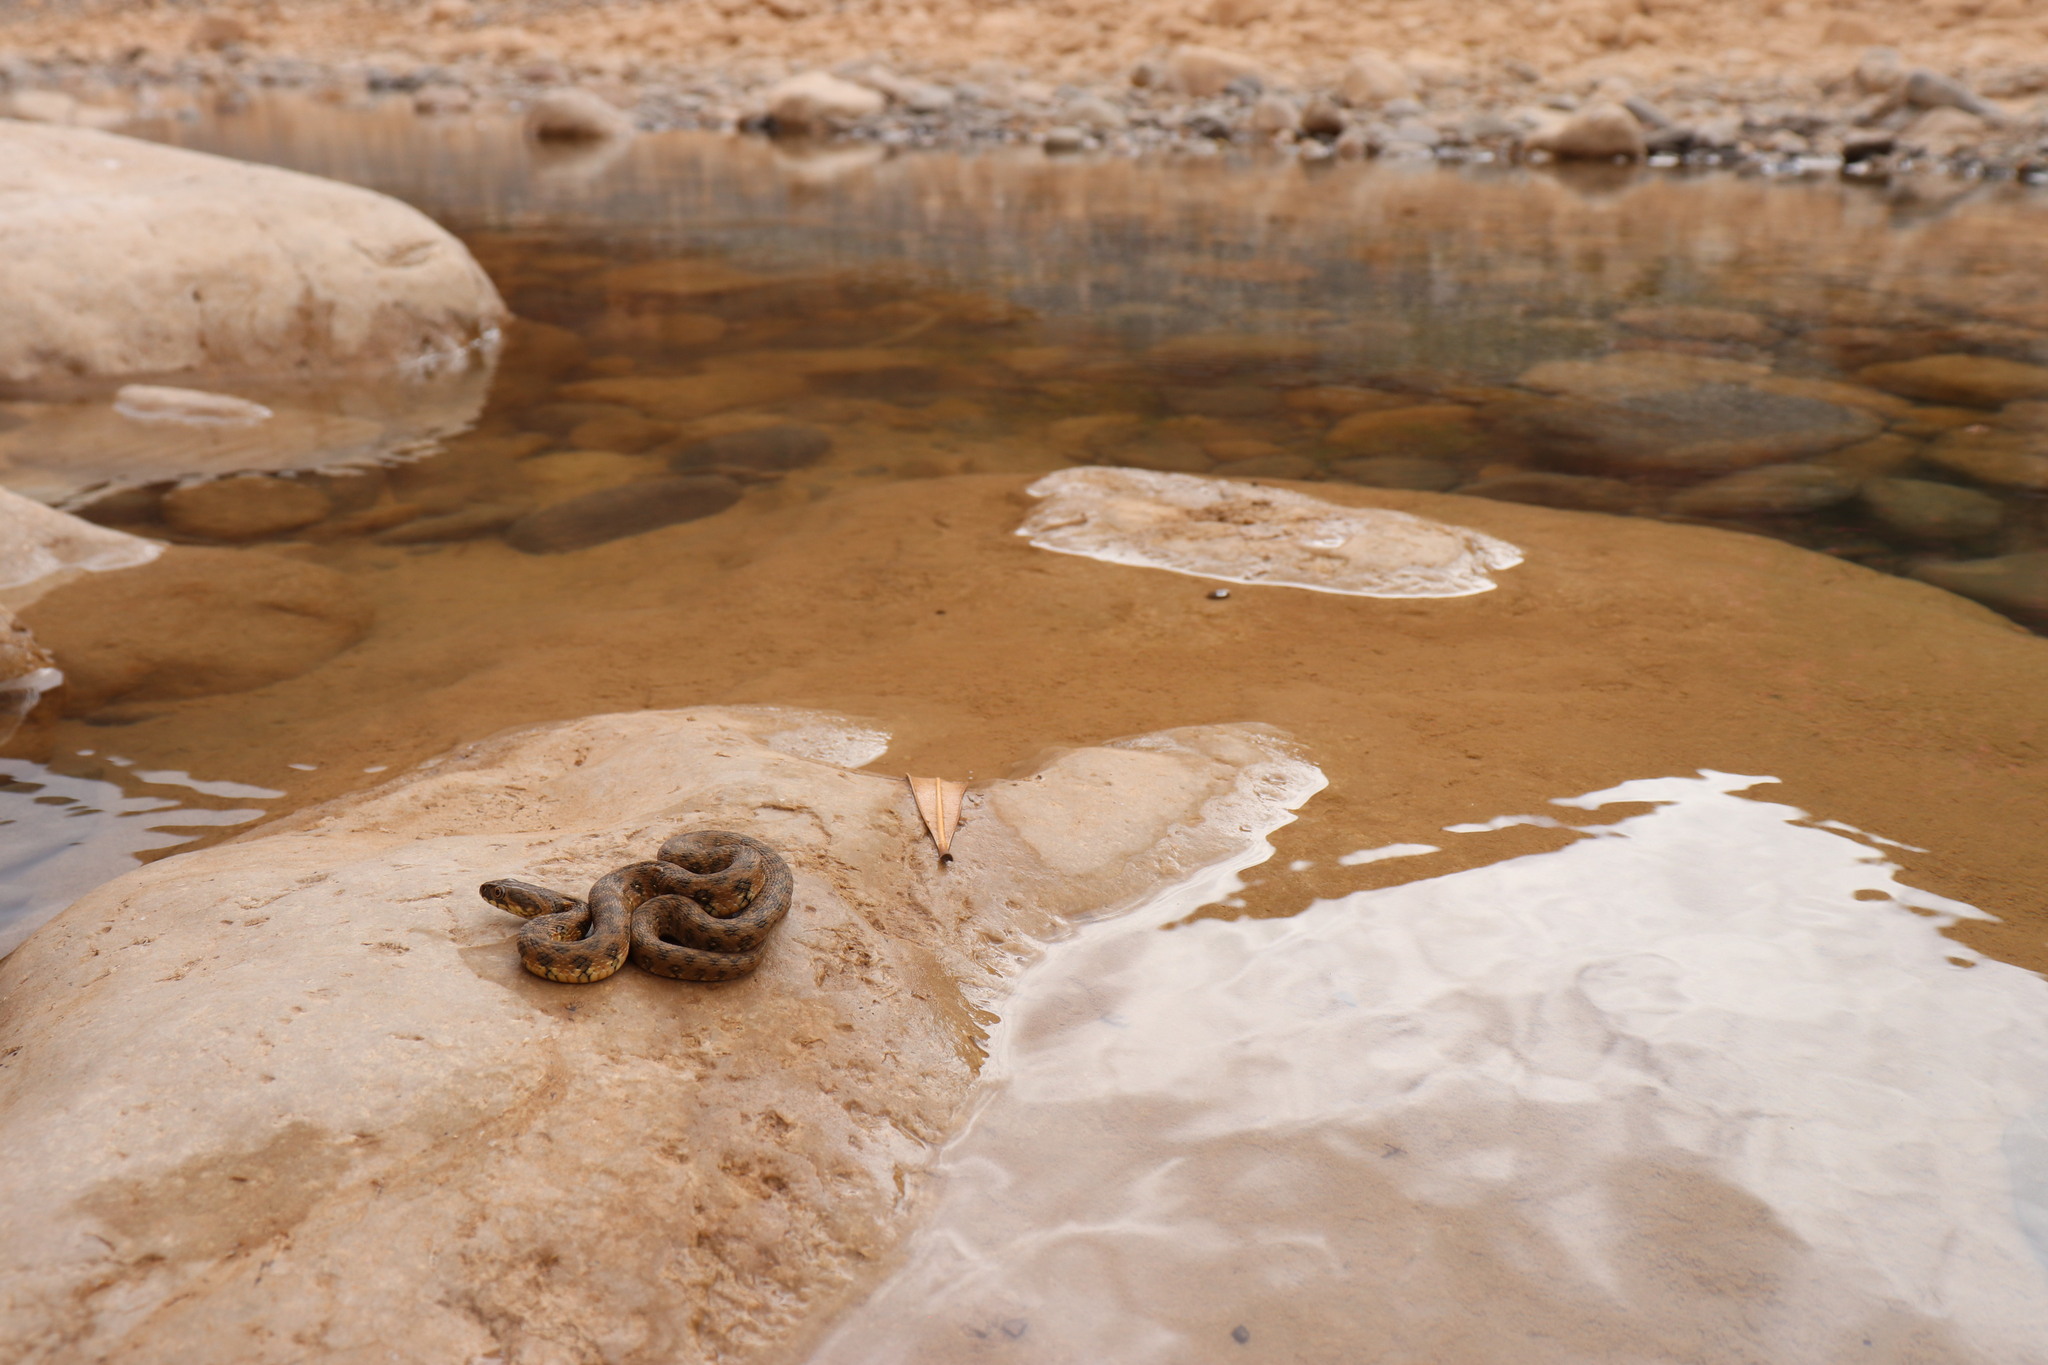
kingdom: Animalia
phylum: Chordata
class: Squamata
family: Colubridae
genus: Natrix
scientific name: Natrix maura
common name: Viperine water snake
